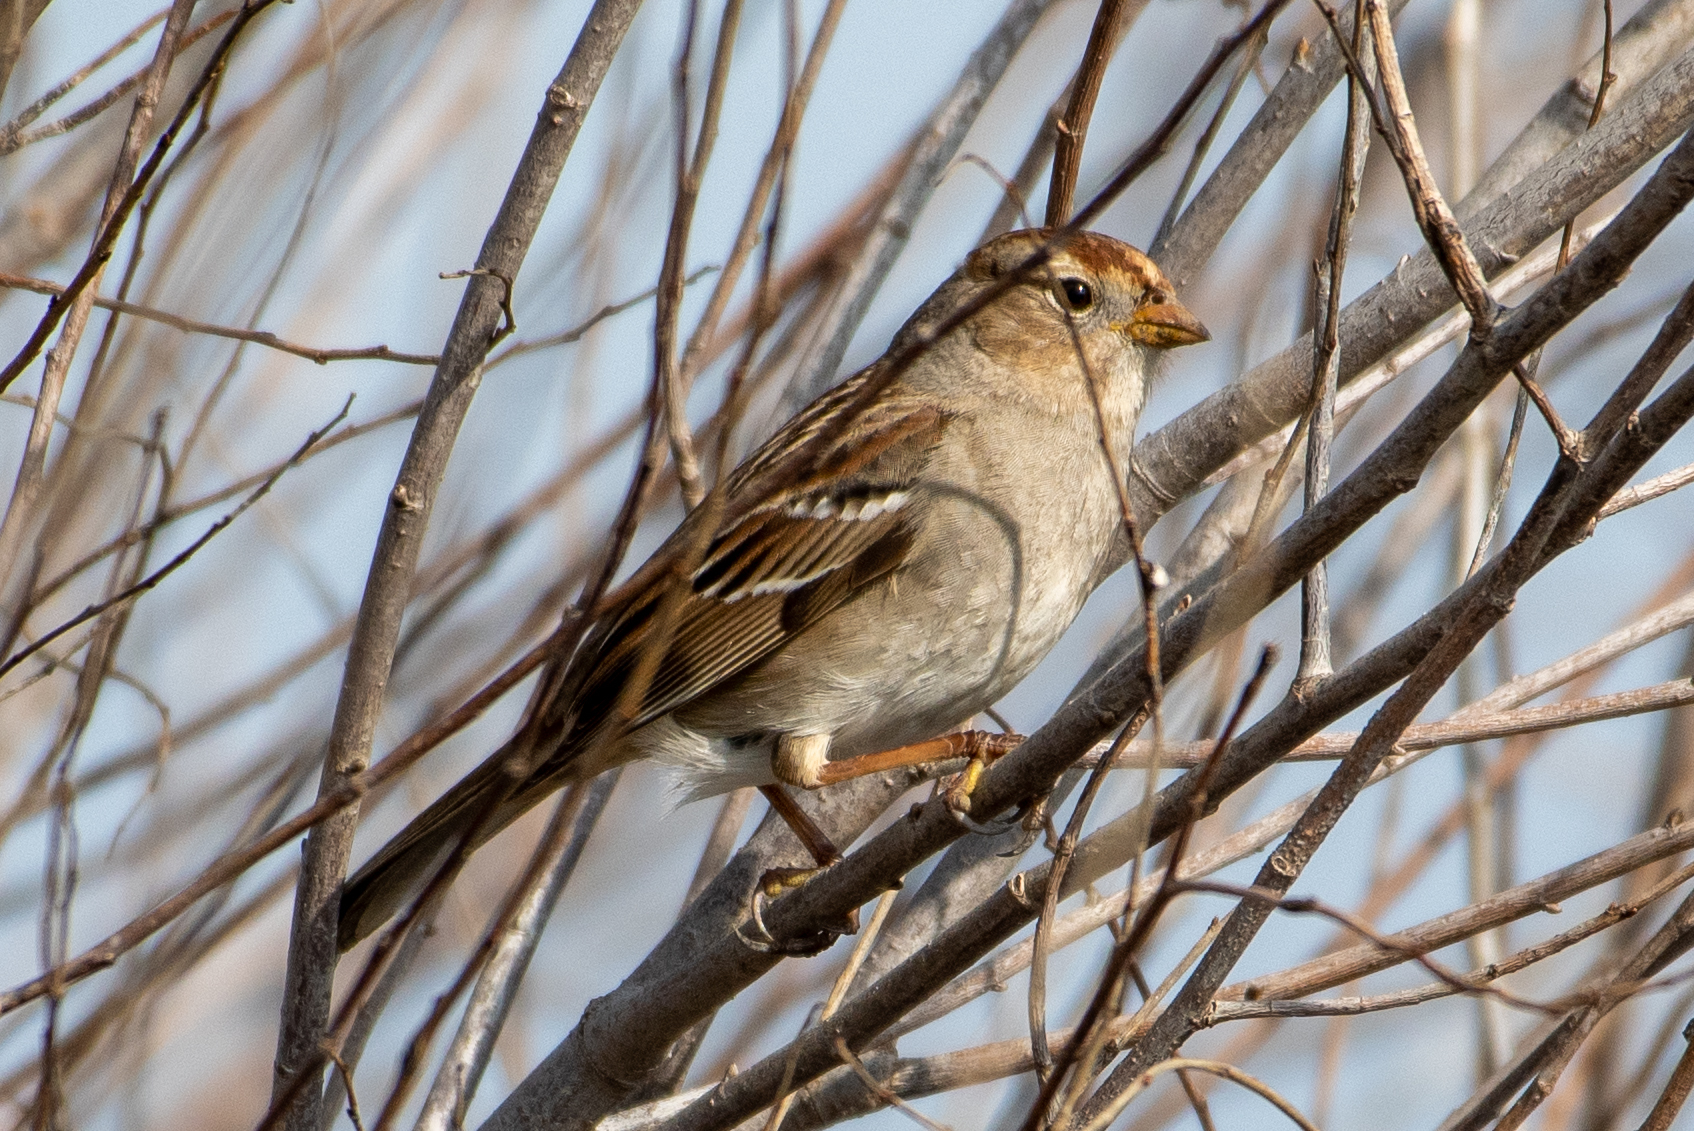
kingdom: Animalia
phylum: Chordata
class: Aves
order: Passeriformes
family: Passerellidae
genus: Zonotrichia
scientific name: Zonotrichia leucophrys
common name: White-crowned sparrow
